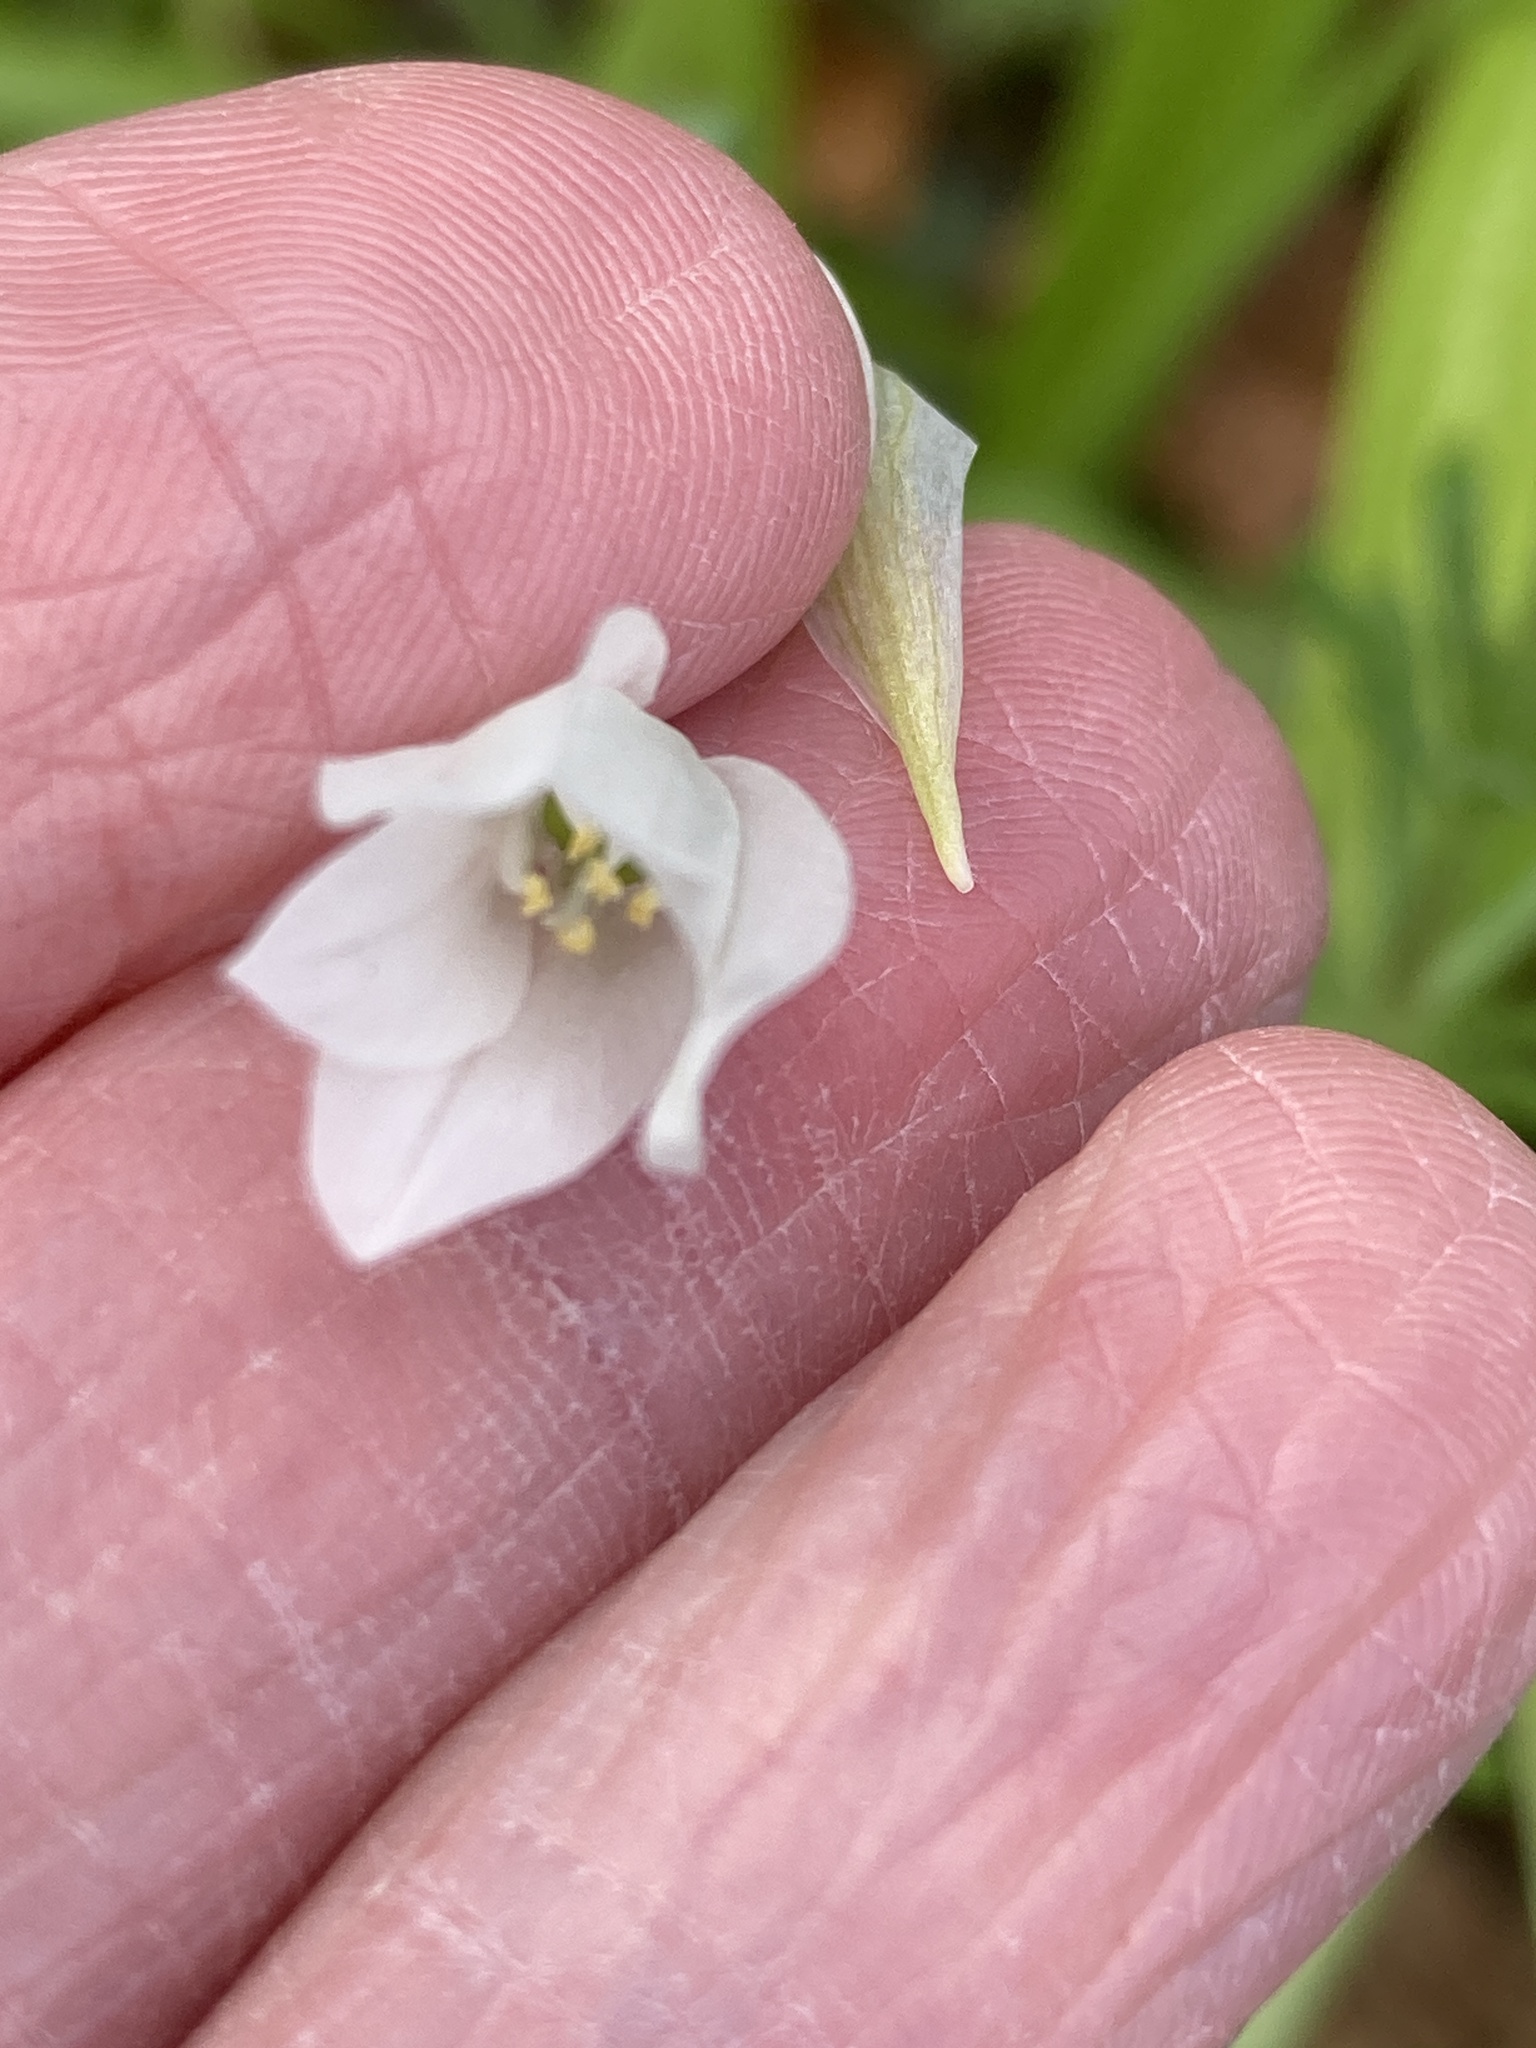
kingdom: Plantae
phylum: Tracheophyta
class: Liliopsida
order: Asparagales
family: Amaryllidaceae
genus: Allium
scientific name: Allium paradoxum
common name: Few-flowered garlic
